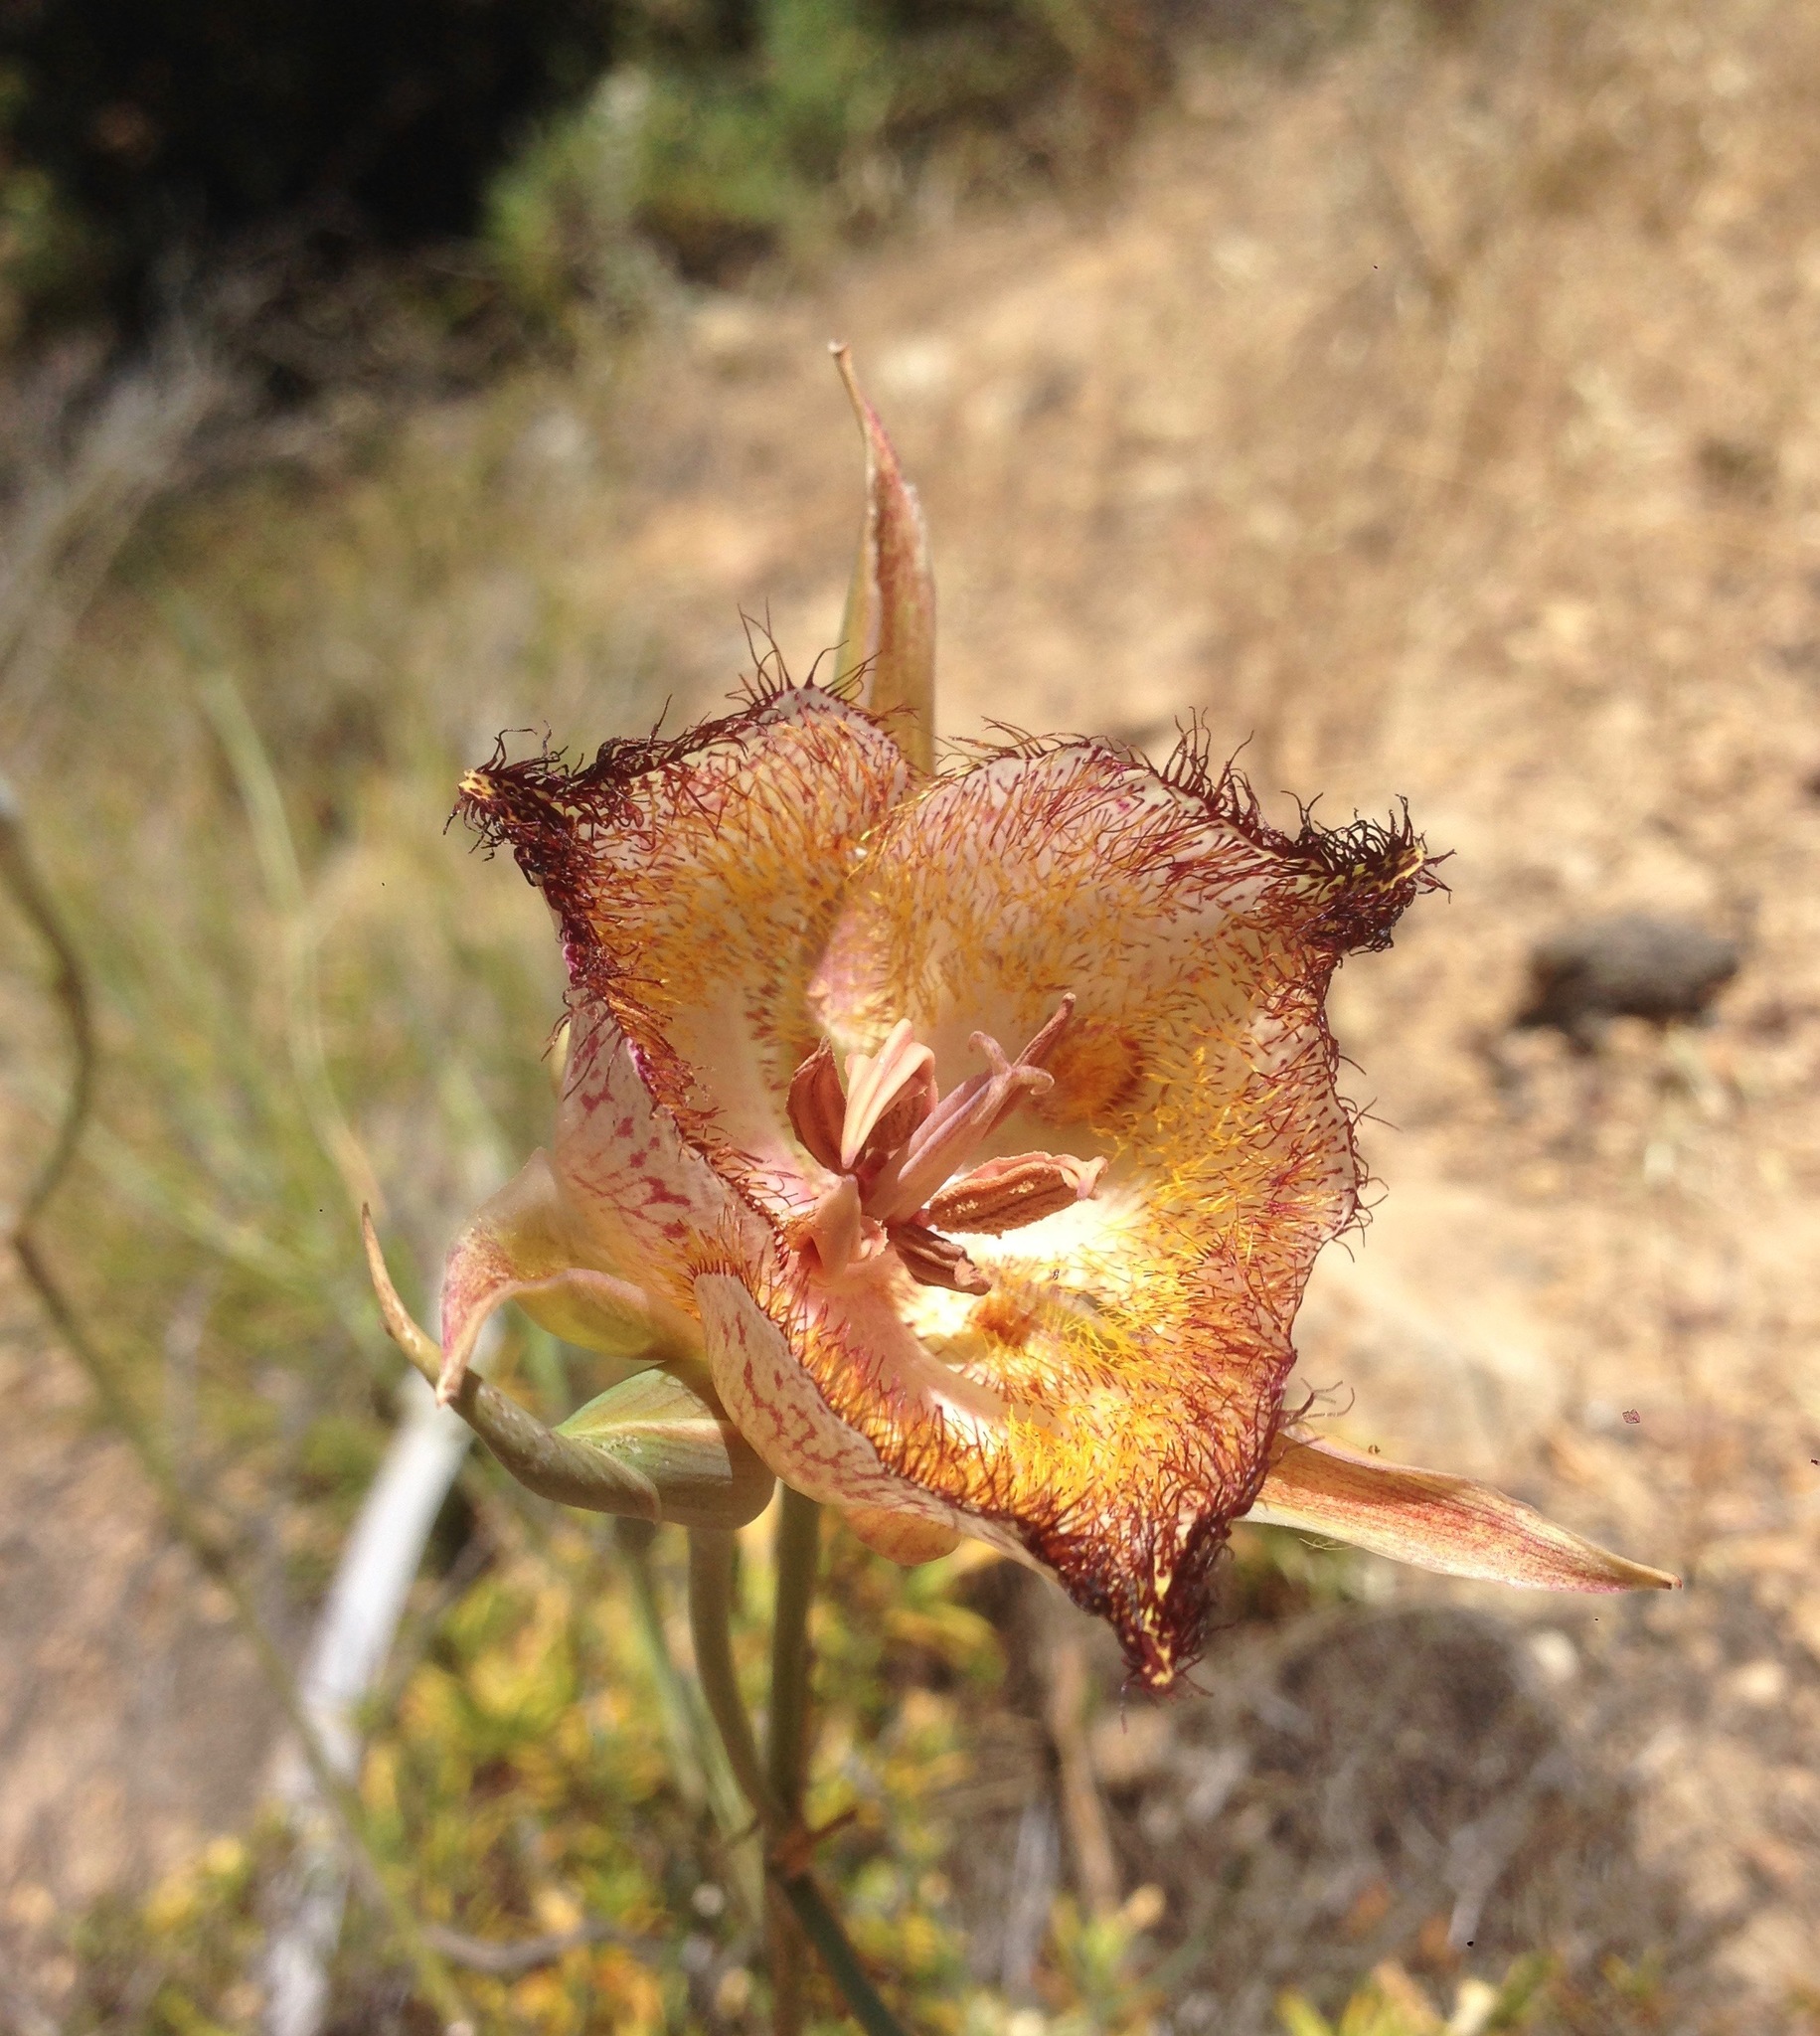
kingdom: Plantae
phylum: Tracheophyta
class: Liliopsida
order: Liliales
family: Liliaceae
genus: Calochortus
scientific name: Calochortus fimbriatus
